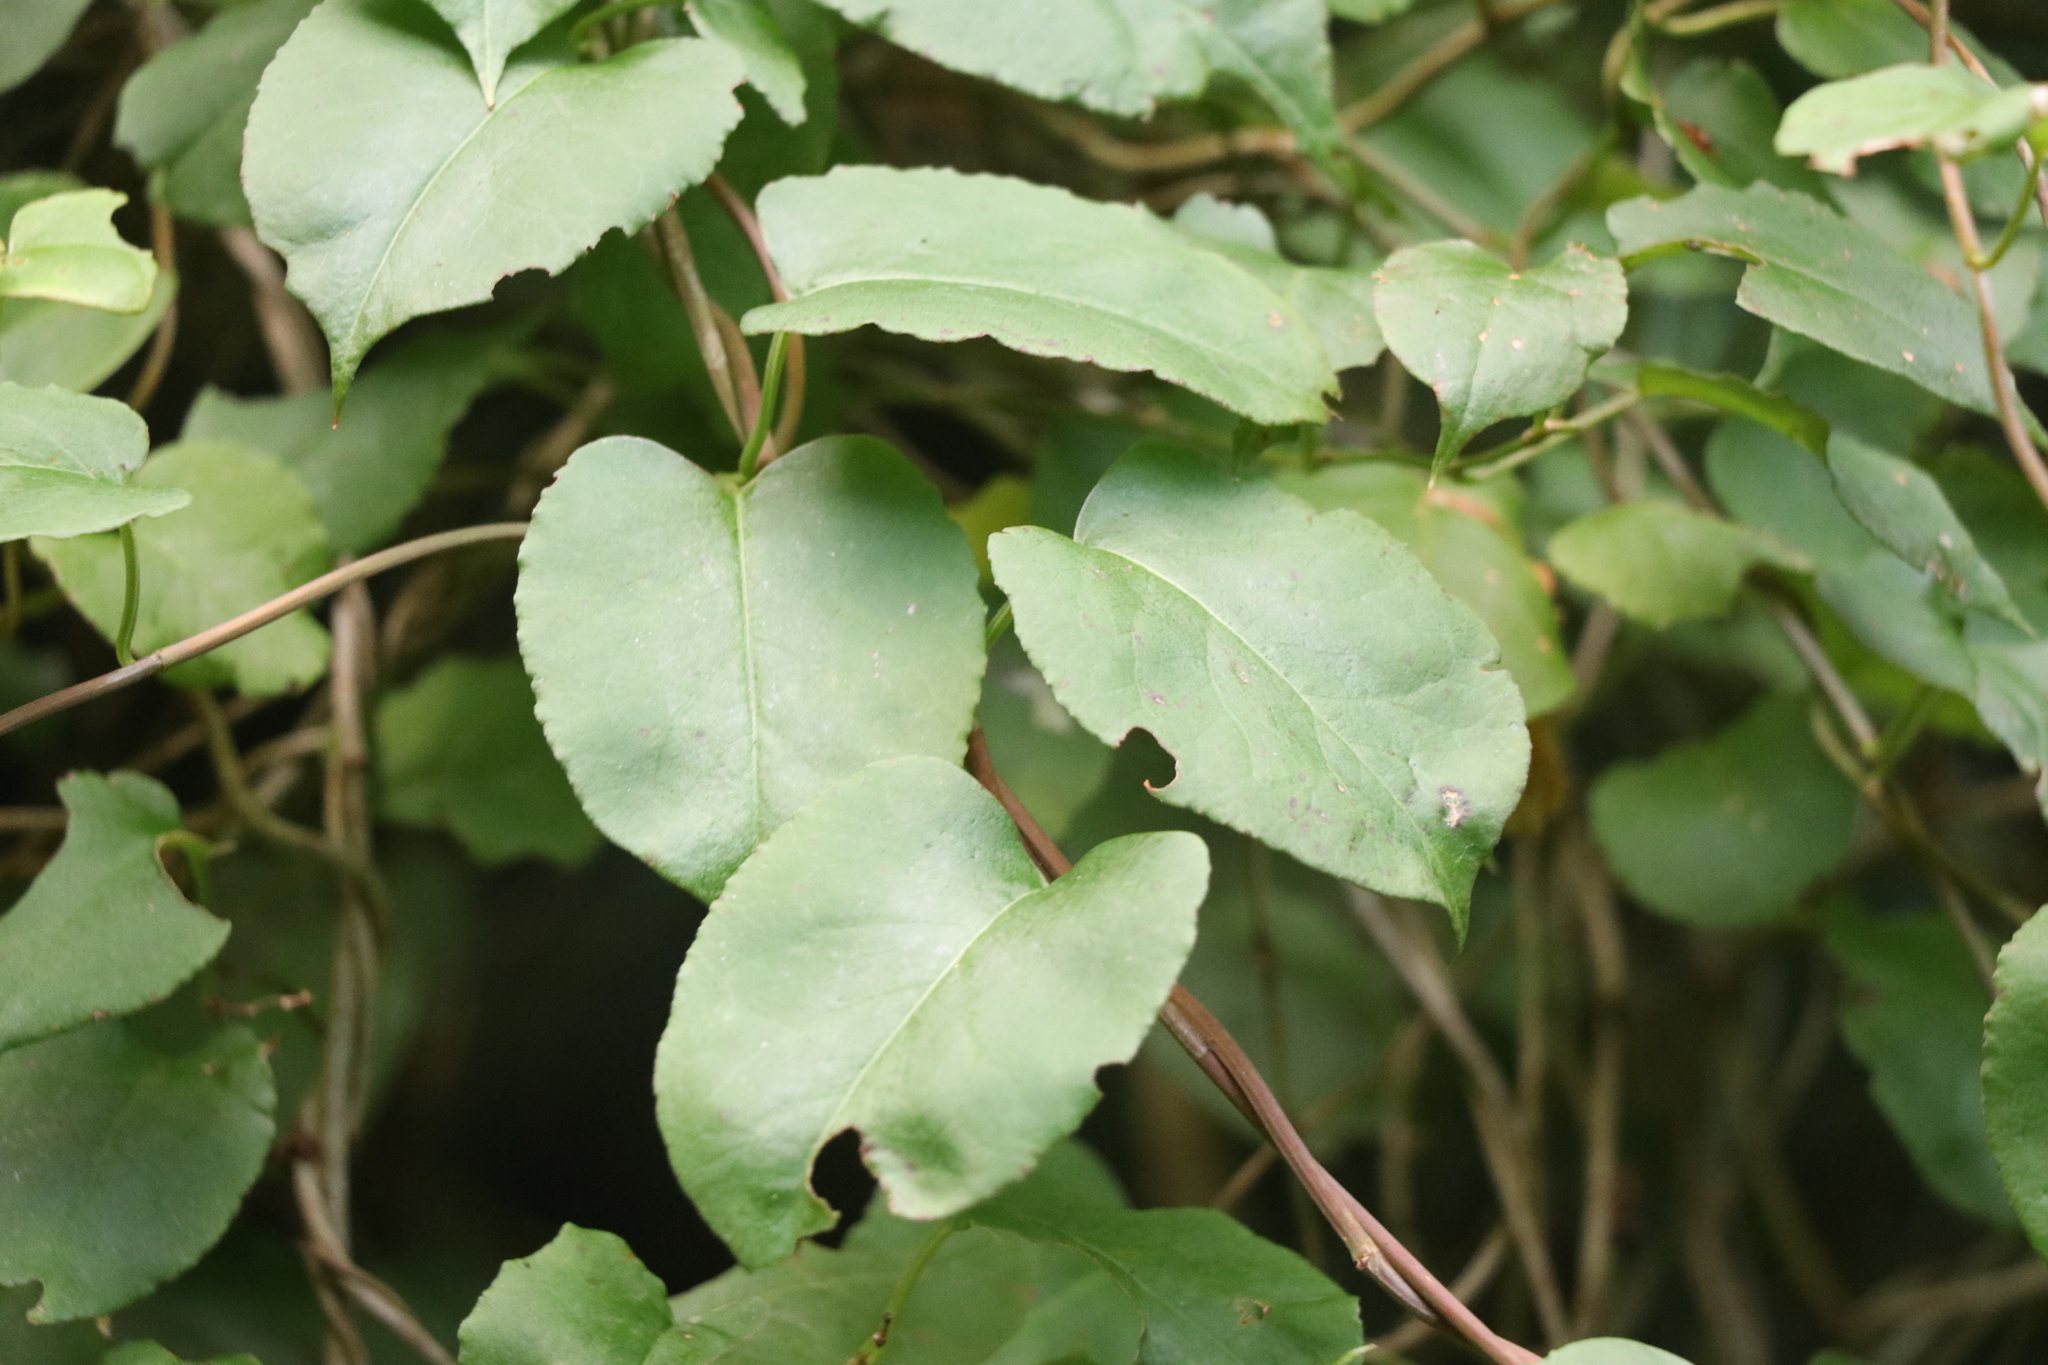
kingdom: Plantae
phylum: Tracheophyta
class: Magnoliopsida
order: Caryophyllales
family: Polygonaceae
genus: Muehlenbeckia
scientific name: Muehlenbeckia australis
